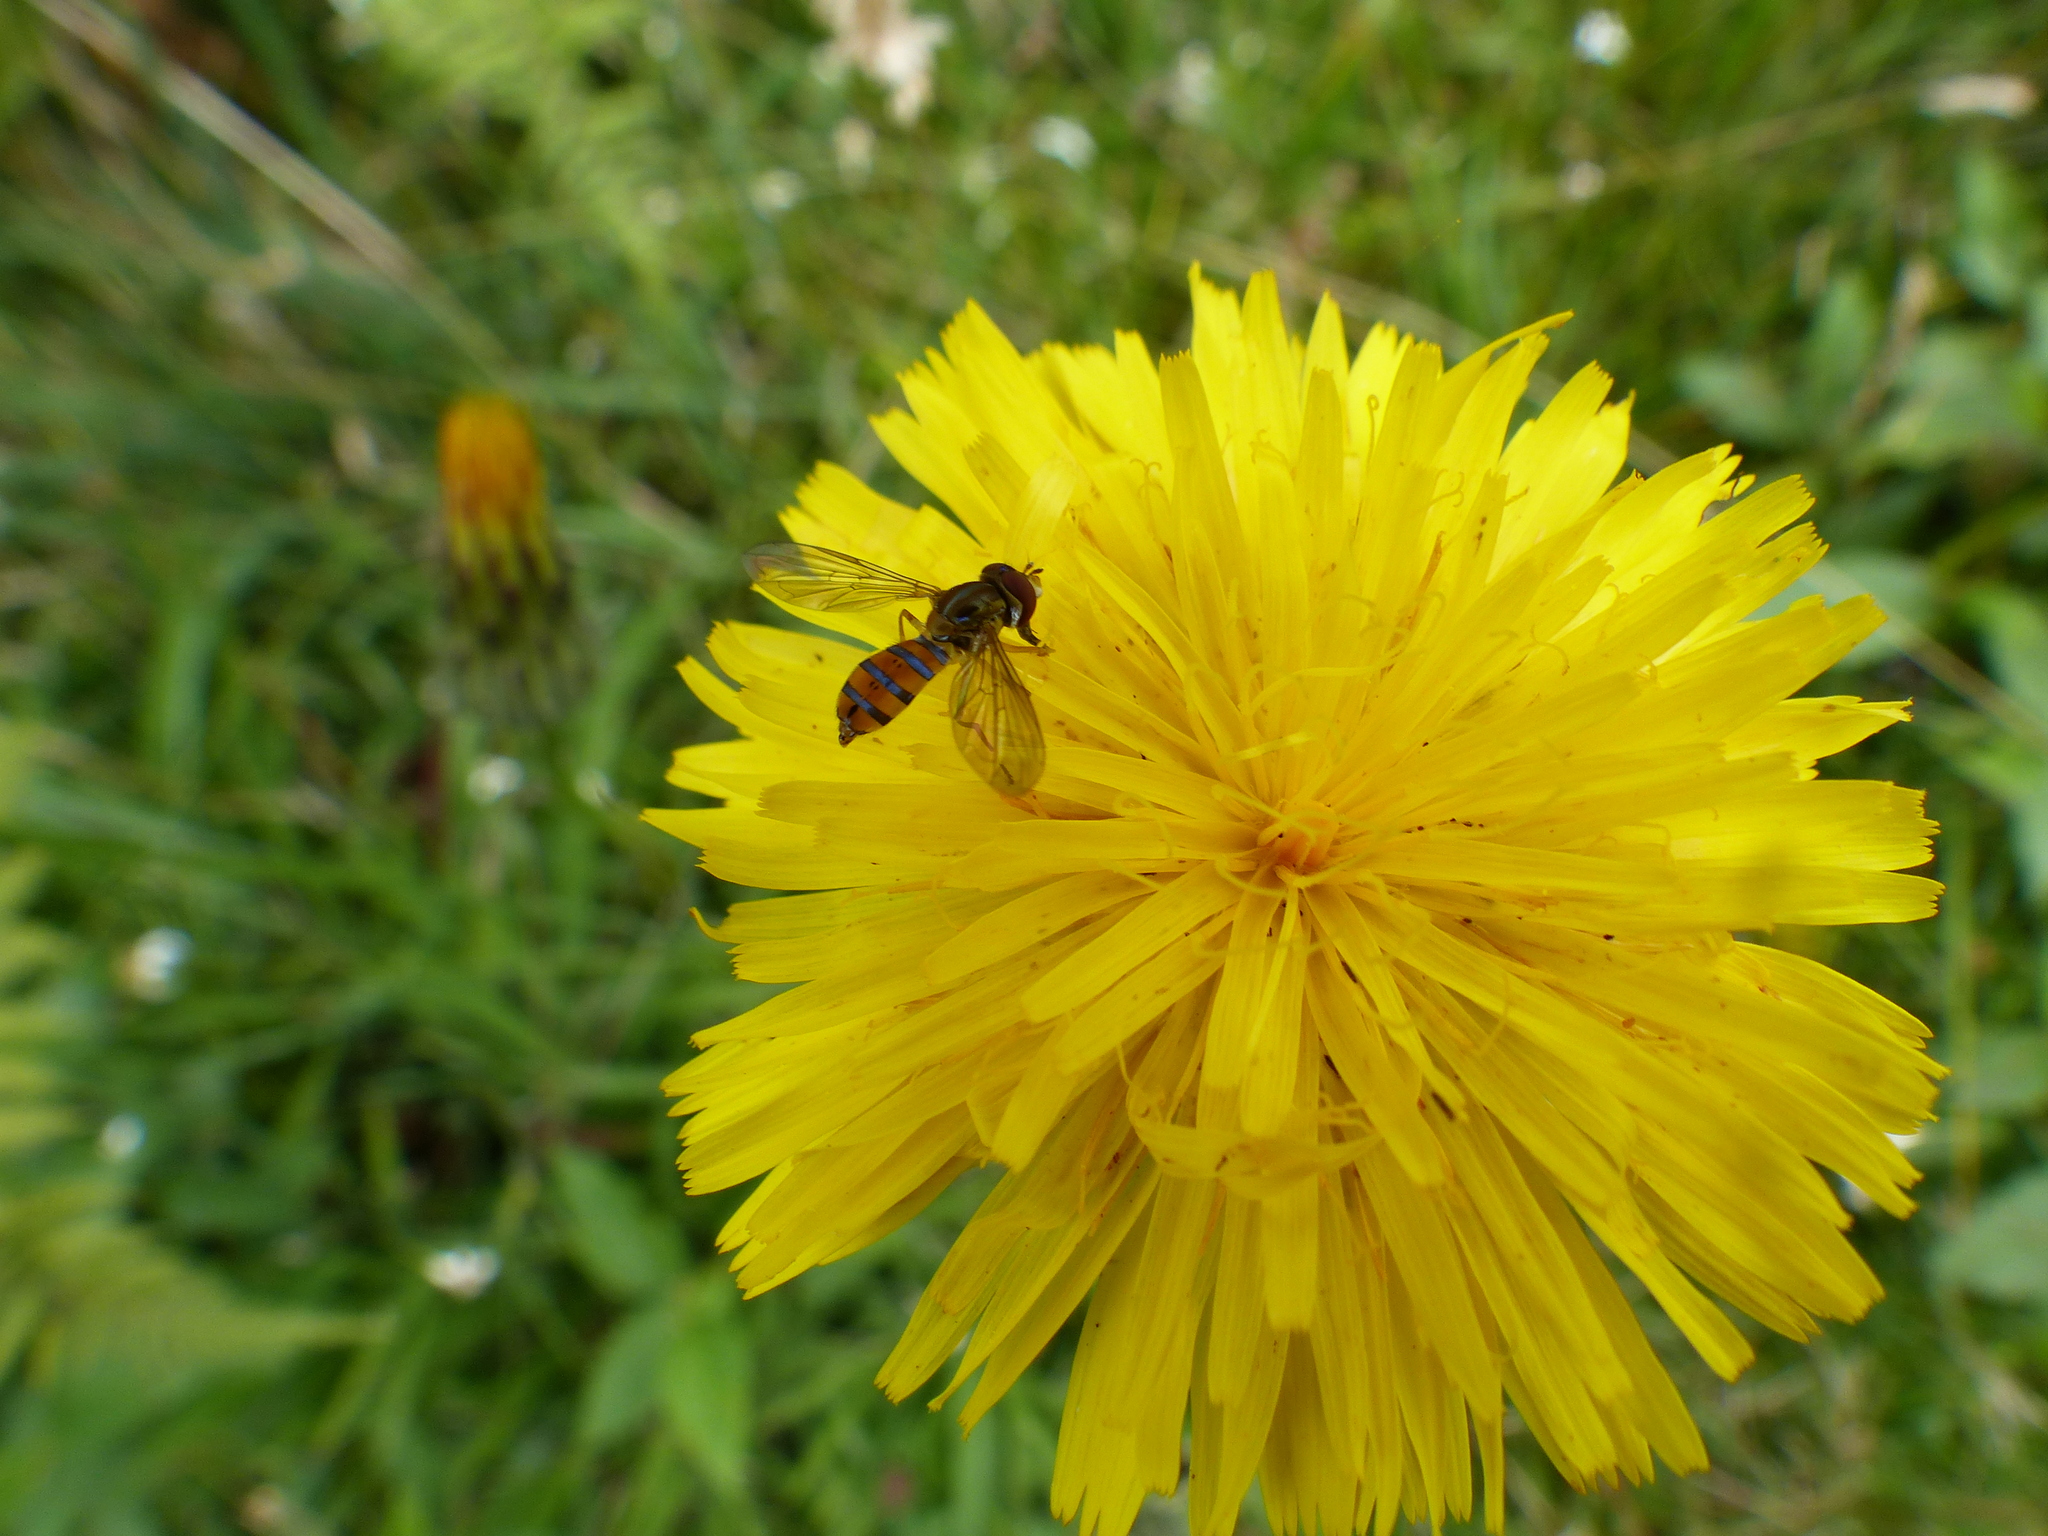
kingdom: Animalia
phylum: Arthropoda
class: Insecta
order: Diptera
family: Syrphidae
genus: Toxomerus
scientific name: Toxomerus watsoni
